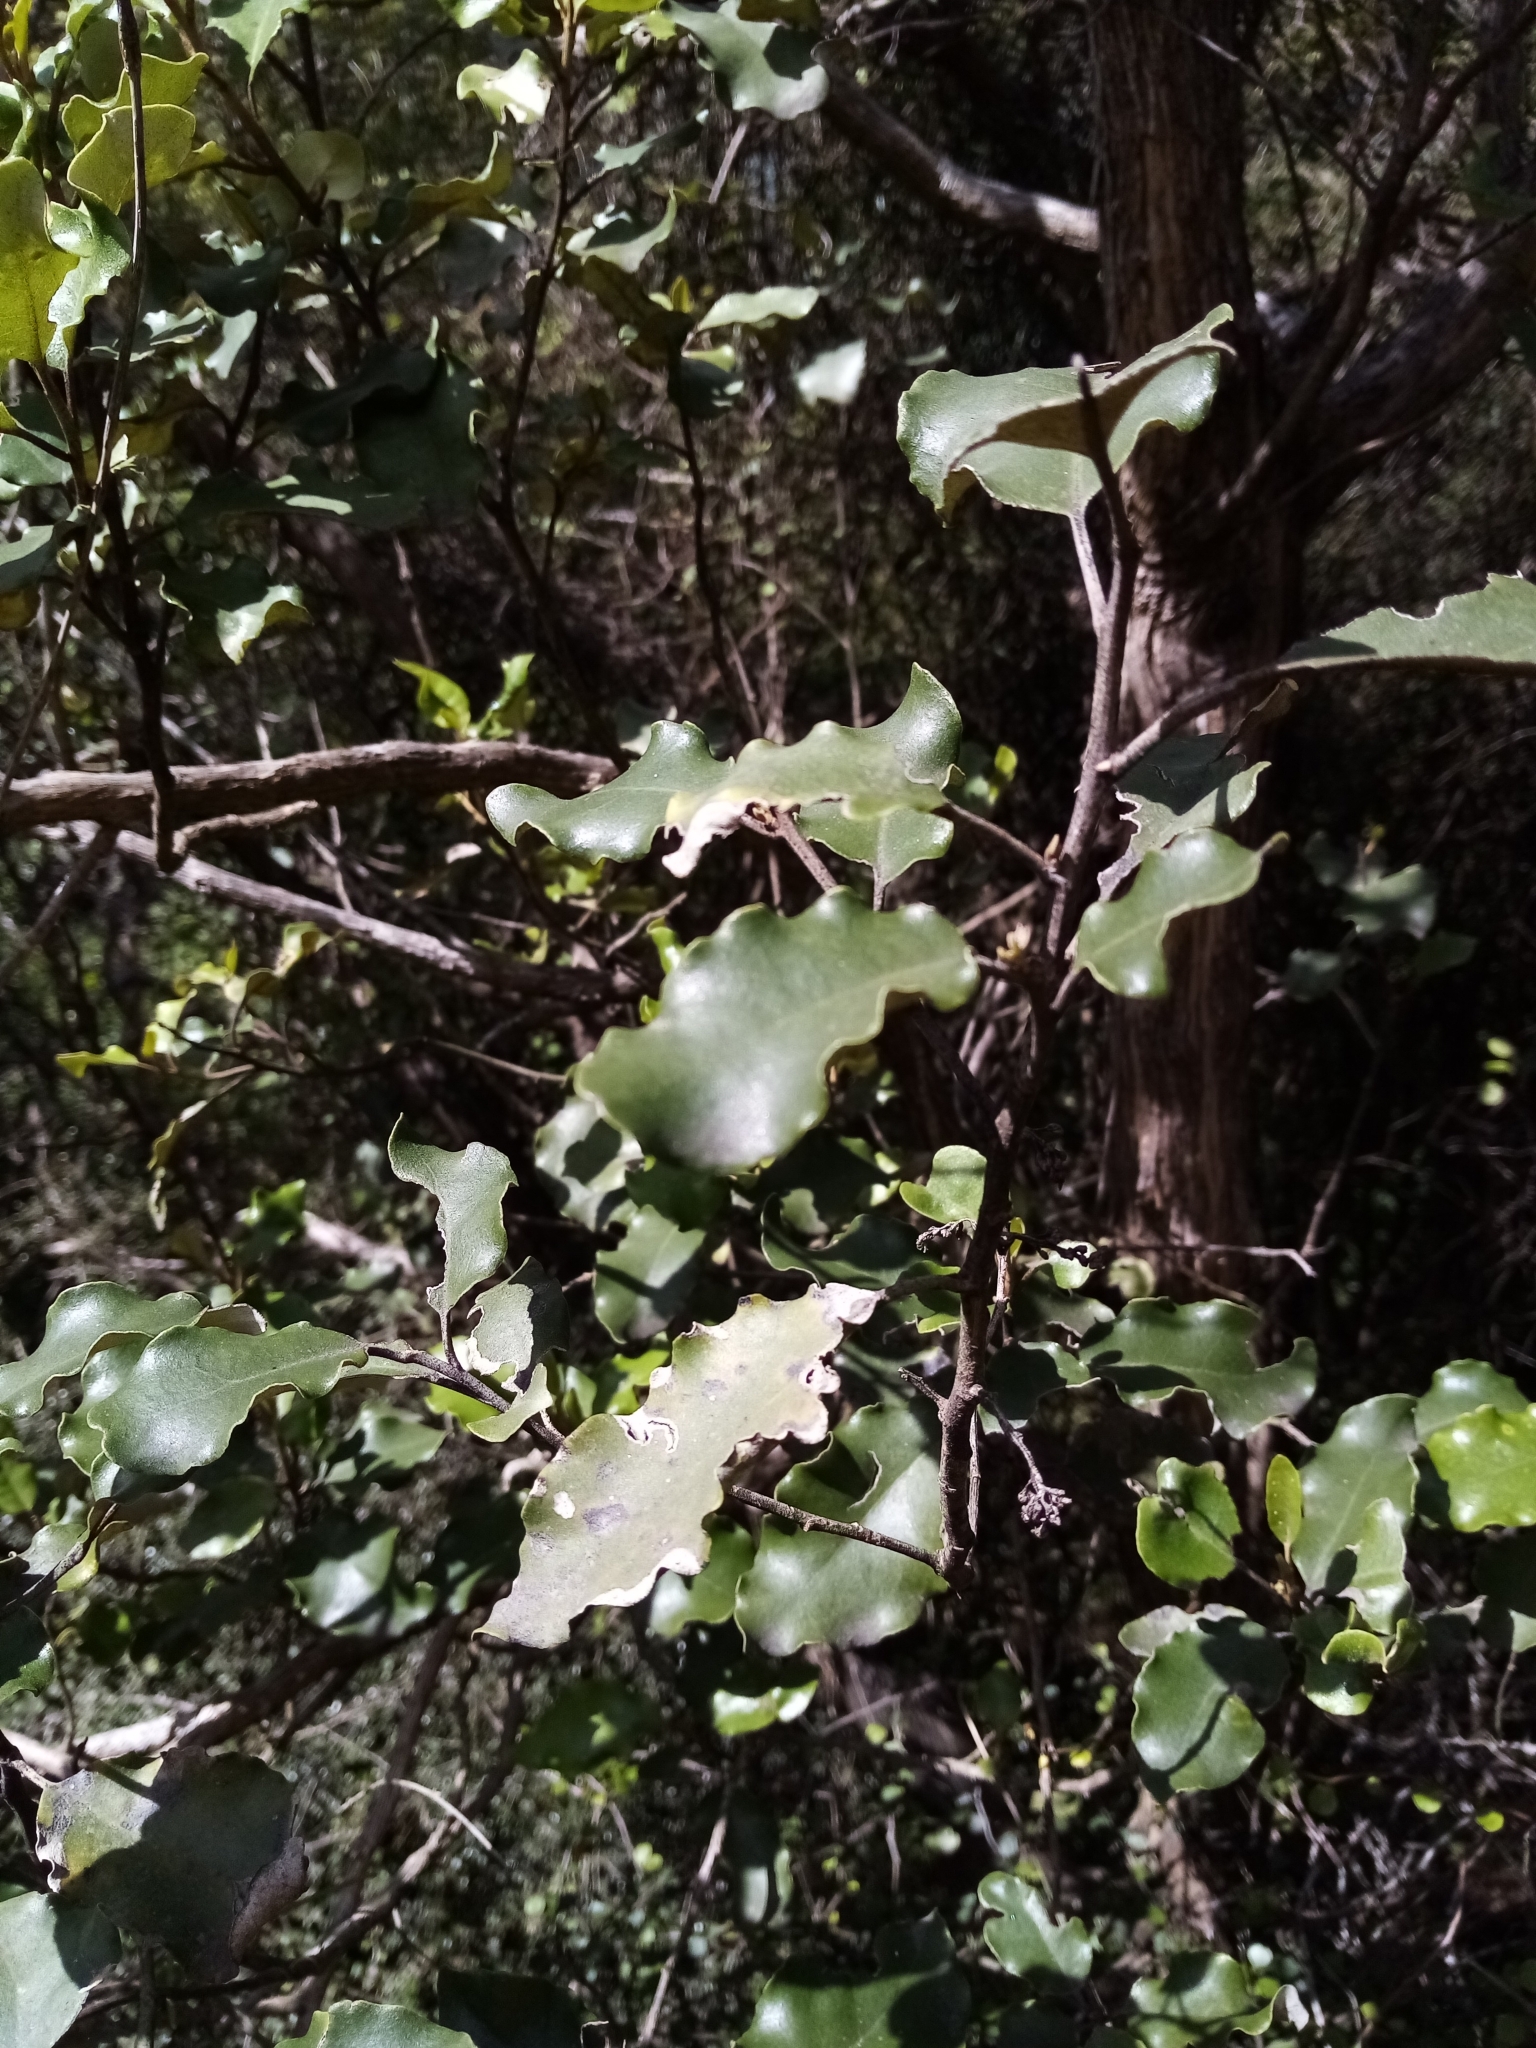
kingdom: Plantae
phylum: Tracheophyta
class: Magnoliopsida
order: Asterales
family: Asteraceae
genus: Olearia
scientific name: Olearia paniculata
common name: Akiraho
